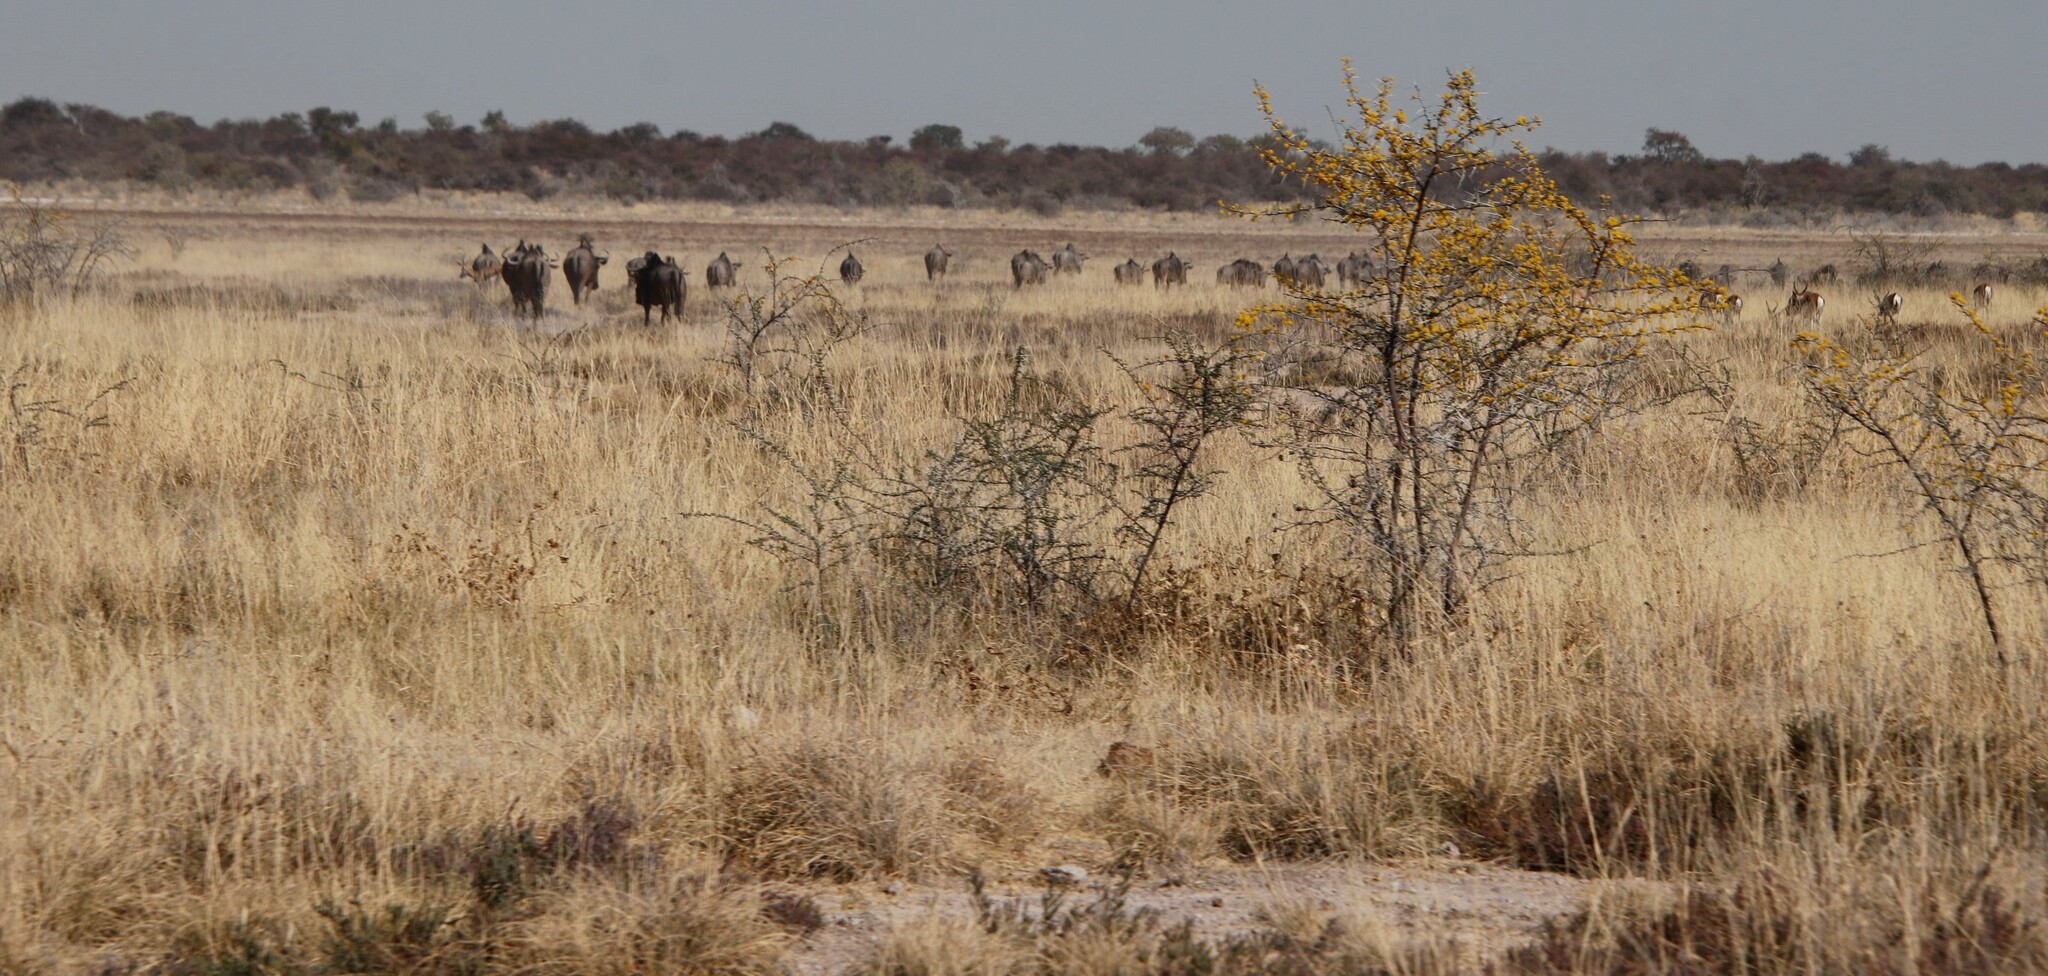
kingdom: Animalia
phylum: Chordata
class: Mammalia
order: Artiodactyla
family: Bovidae
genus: Connochaetes
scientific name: Connochaetes taurinus
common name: Blue wildebeest
